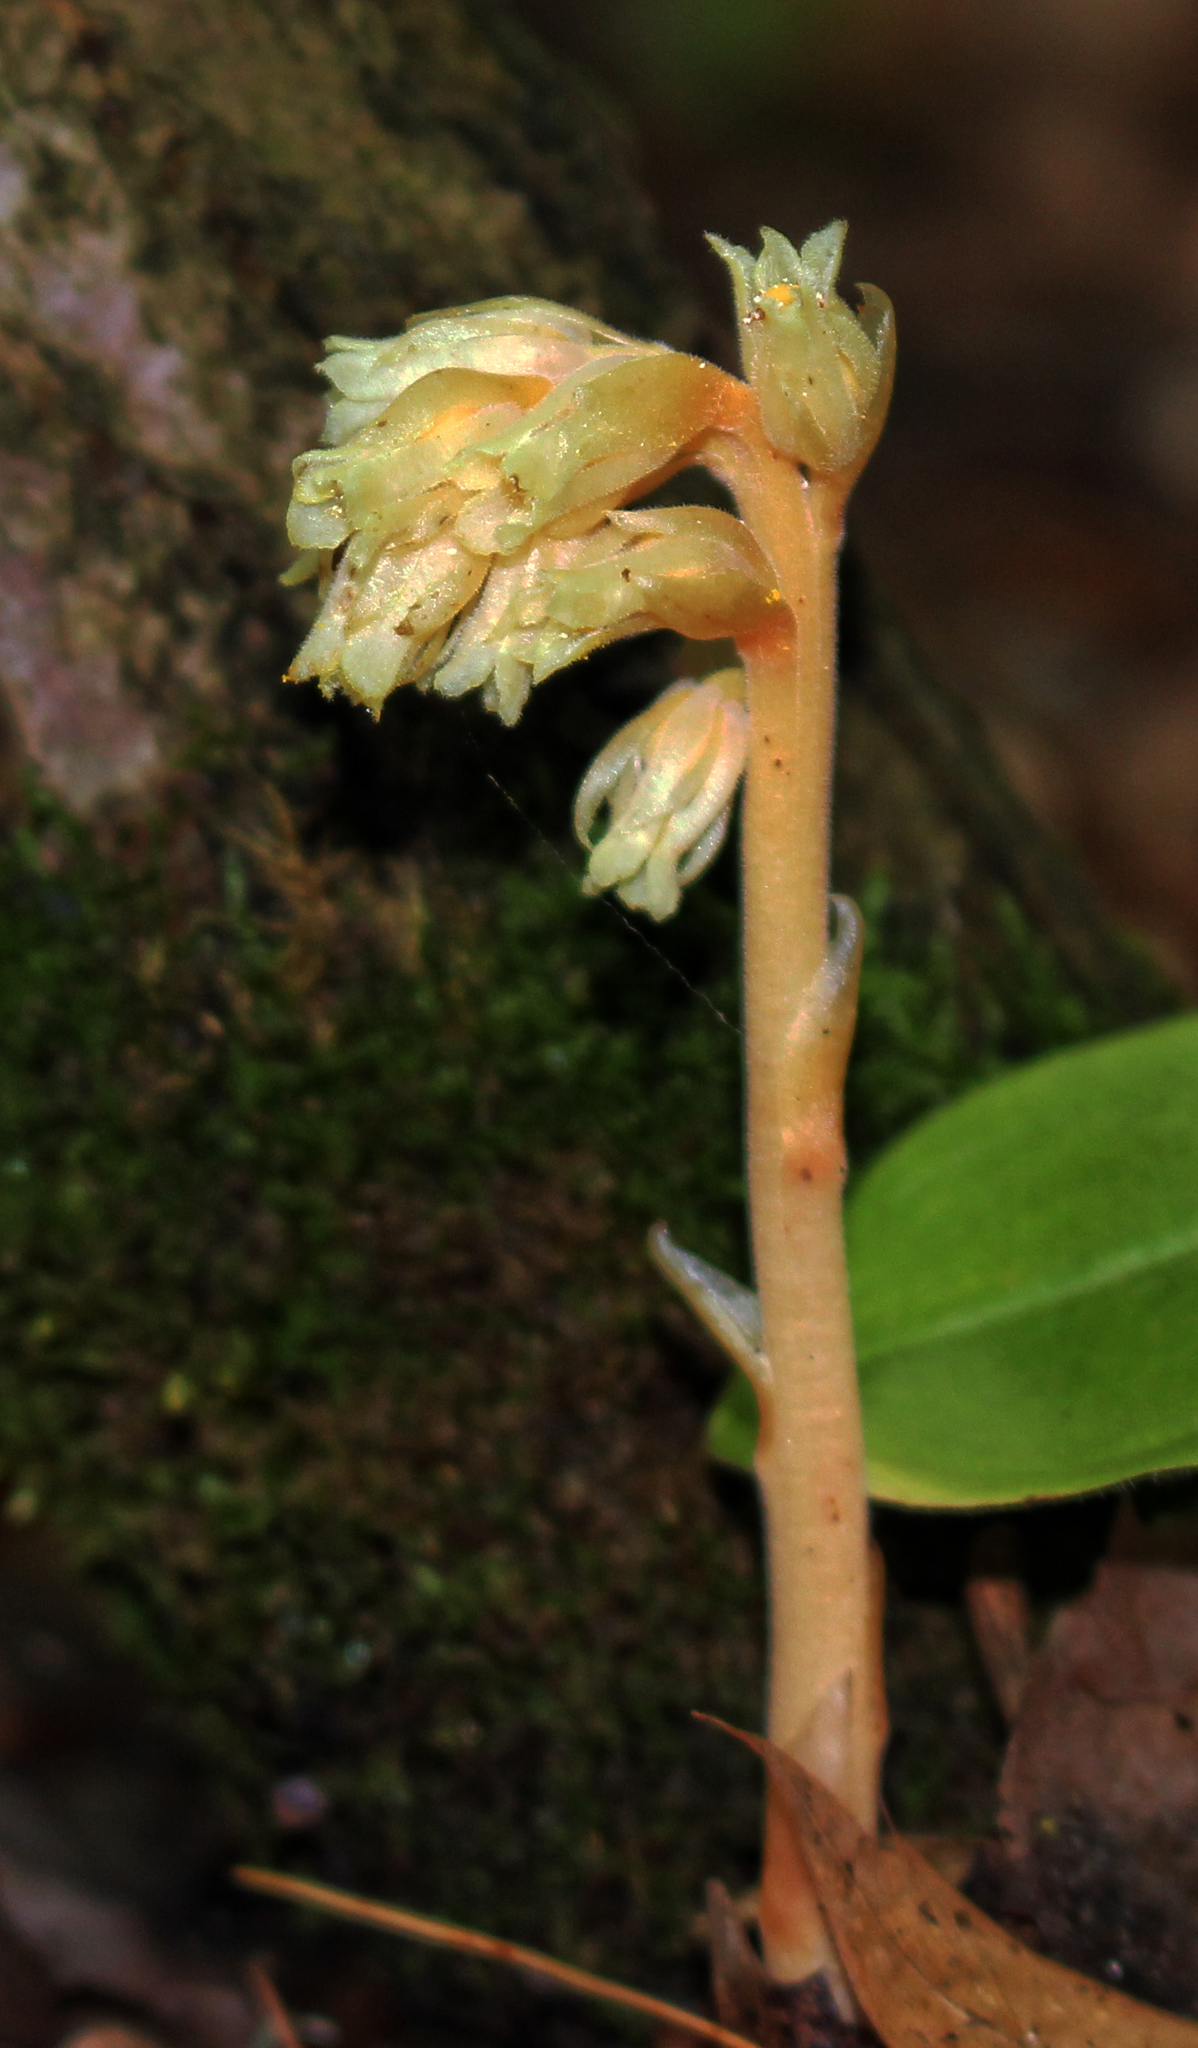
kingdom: Plantae
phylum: Tracheophyta
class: Magnoliopsida
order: Ericales
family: Ericaceae
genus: Hypopitys
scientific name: Hypopitys monotropa
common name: Yellow bird's-nest
